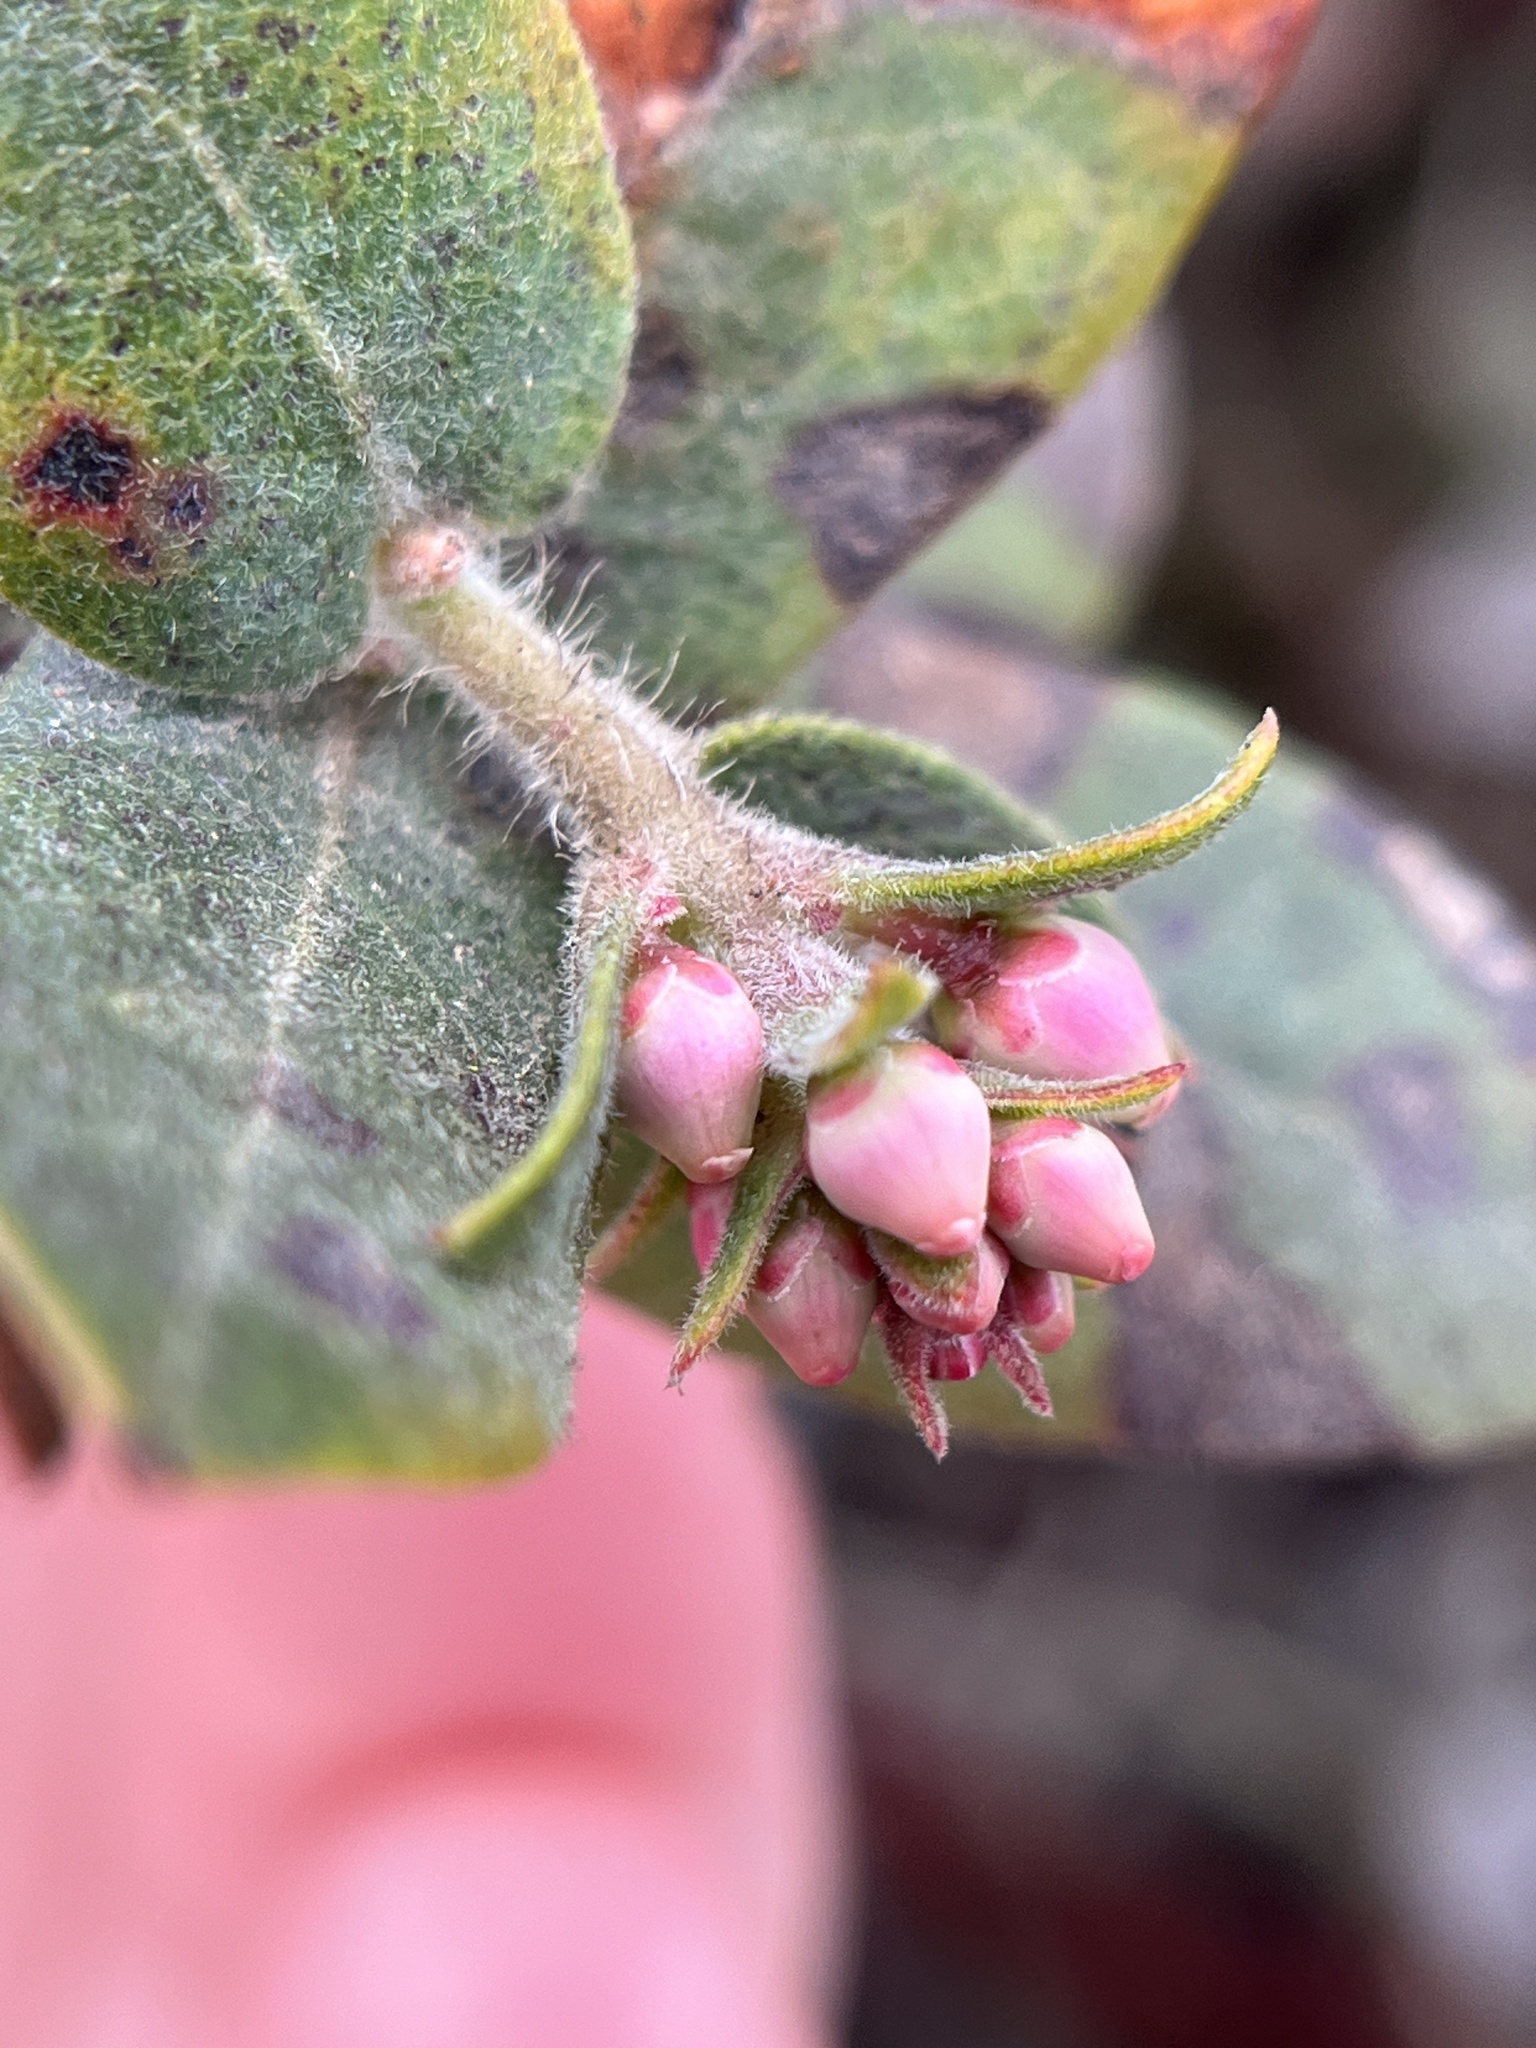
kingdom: Plantae
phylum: Tracheophyta
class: Magnoliopsida
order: Ericales
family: Ericaceae
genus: Arctostaphylos
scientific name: Arctostaphylos pajaroensis
